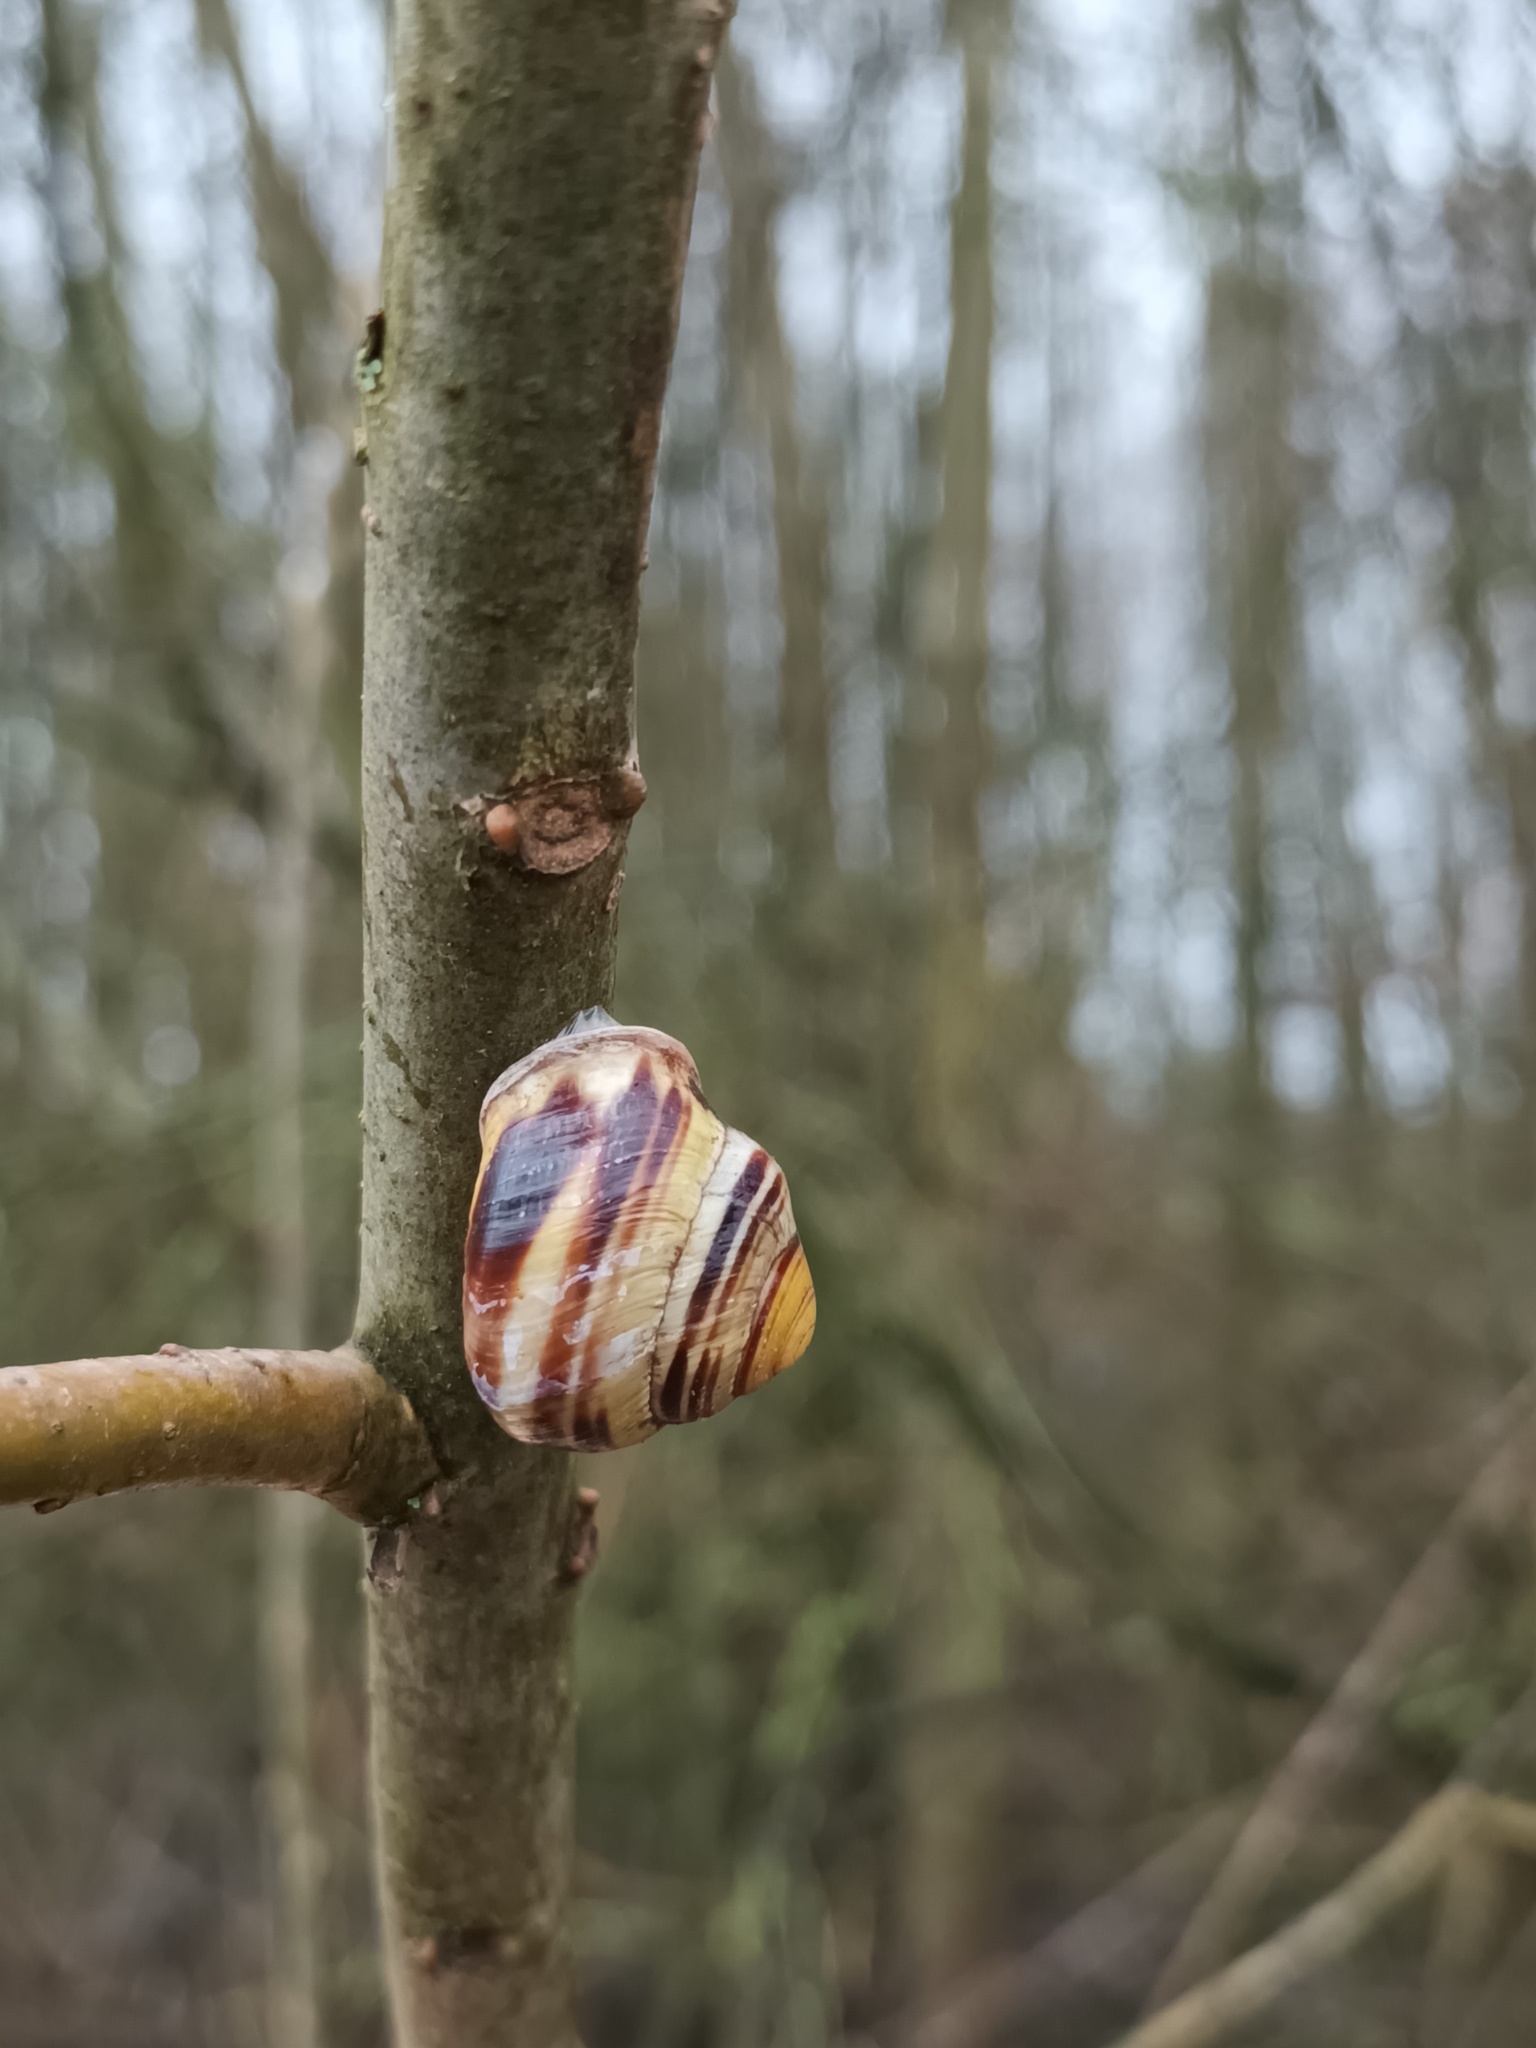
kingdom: Animalia
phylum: Mollusca
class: Gastropoda
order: Stylommatophora
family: Helicidae
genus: Cepaea
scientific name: Cepaea nemoralis
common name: Grovesnail
